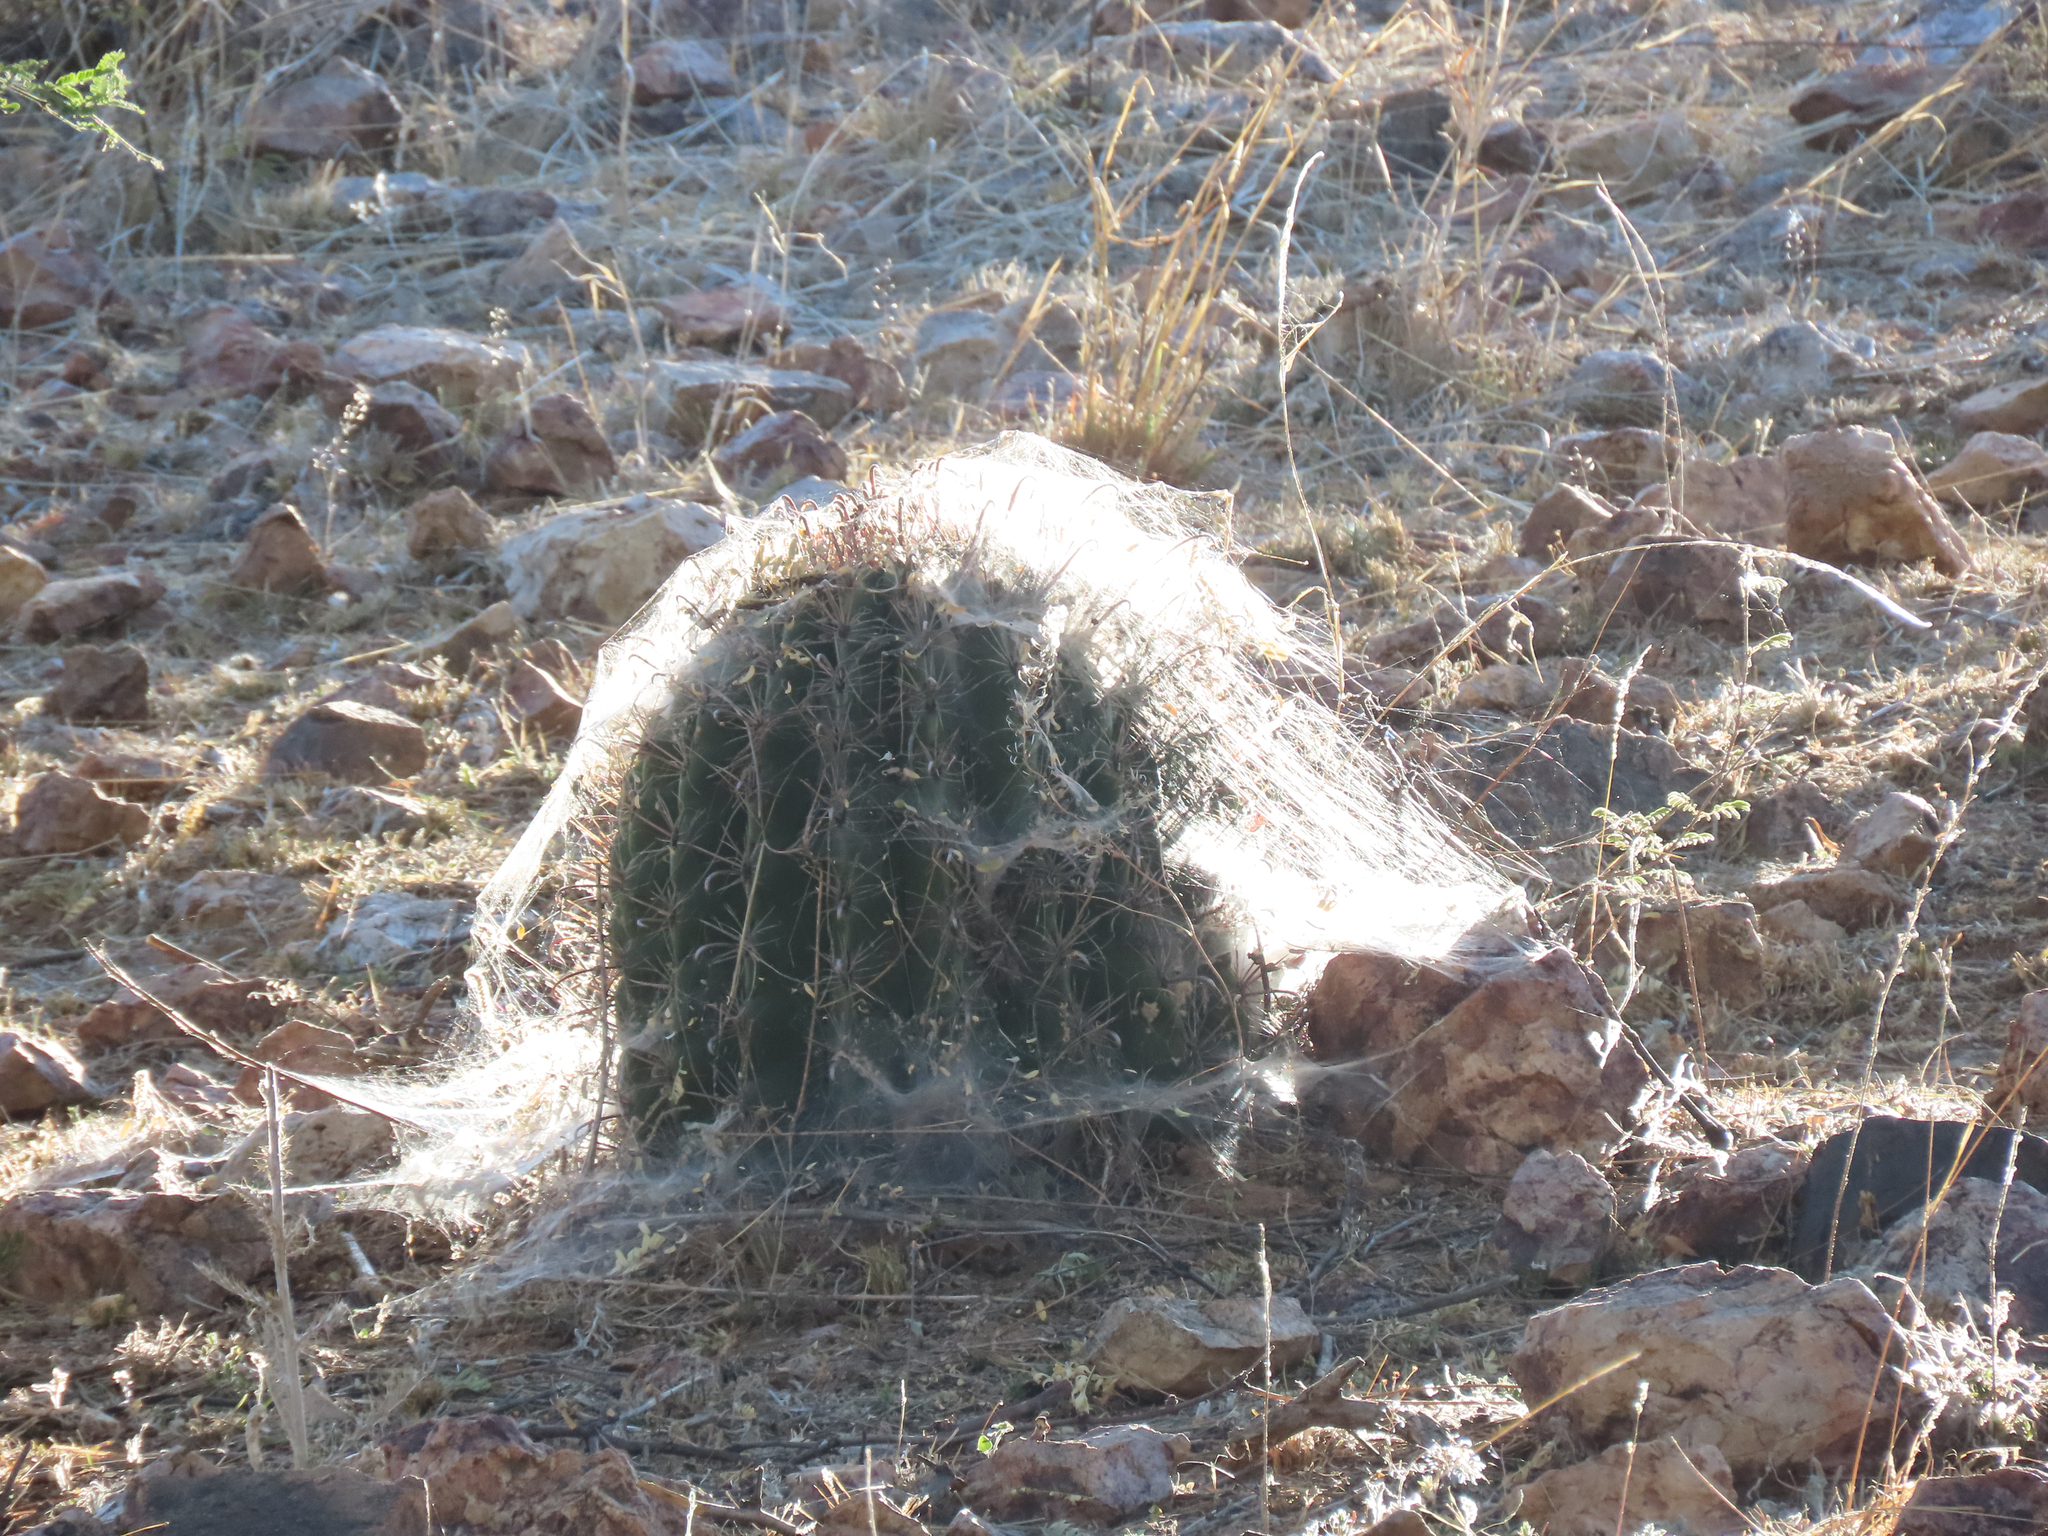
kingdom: Plantae
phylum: Tracheophyta
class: Magnoliopsida
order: Caryophyllales
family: Cactaceae
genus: Ferocactus
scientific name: Ferocactus wislizeni
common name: Candy barrel cactus
